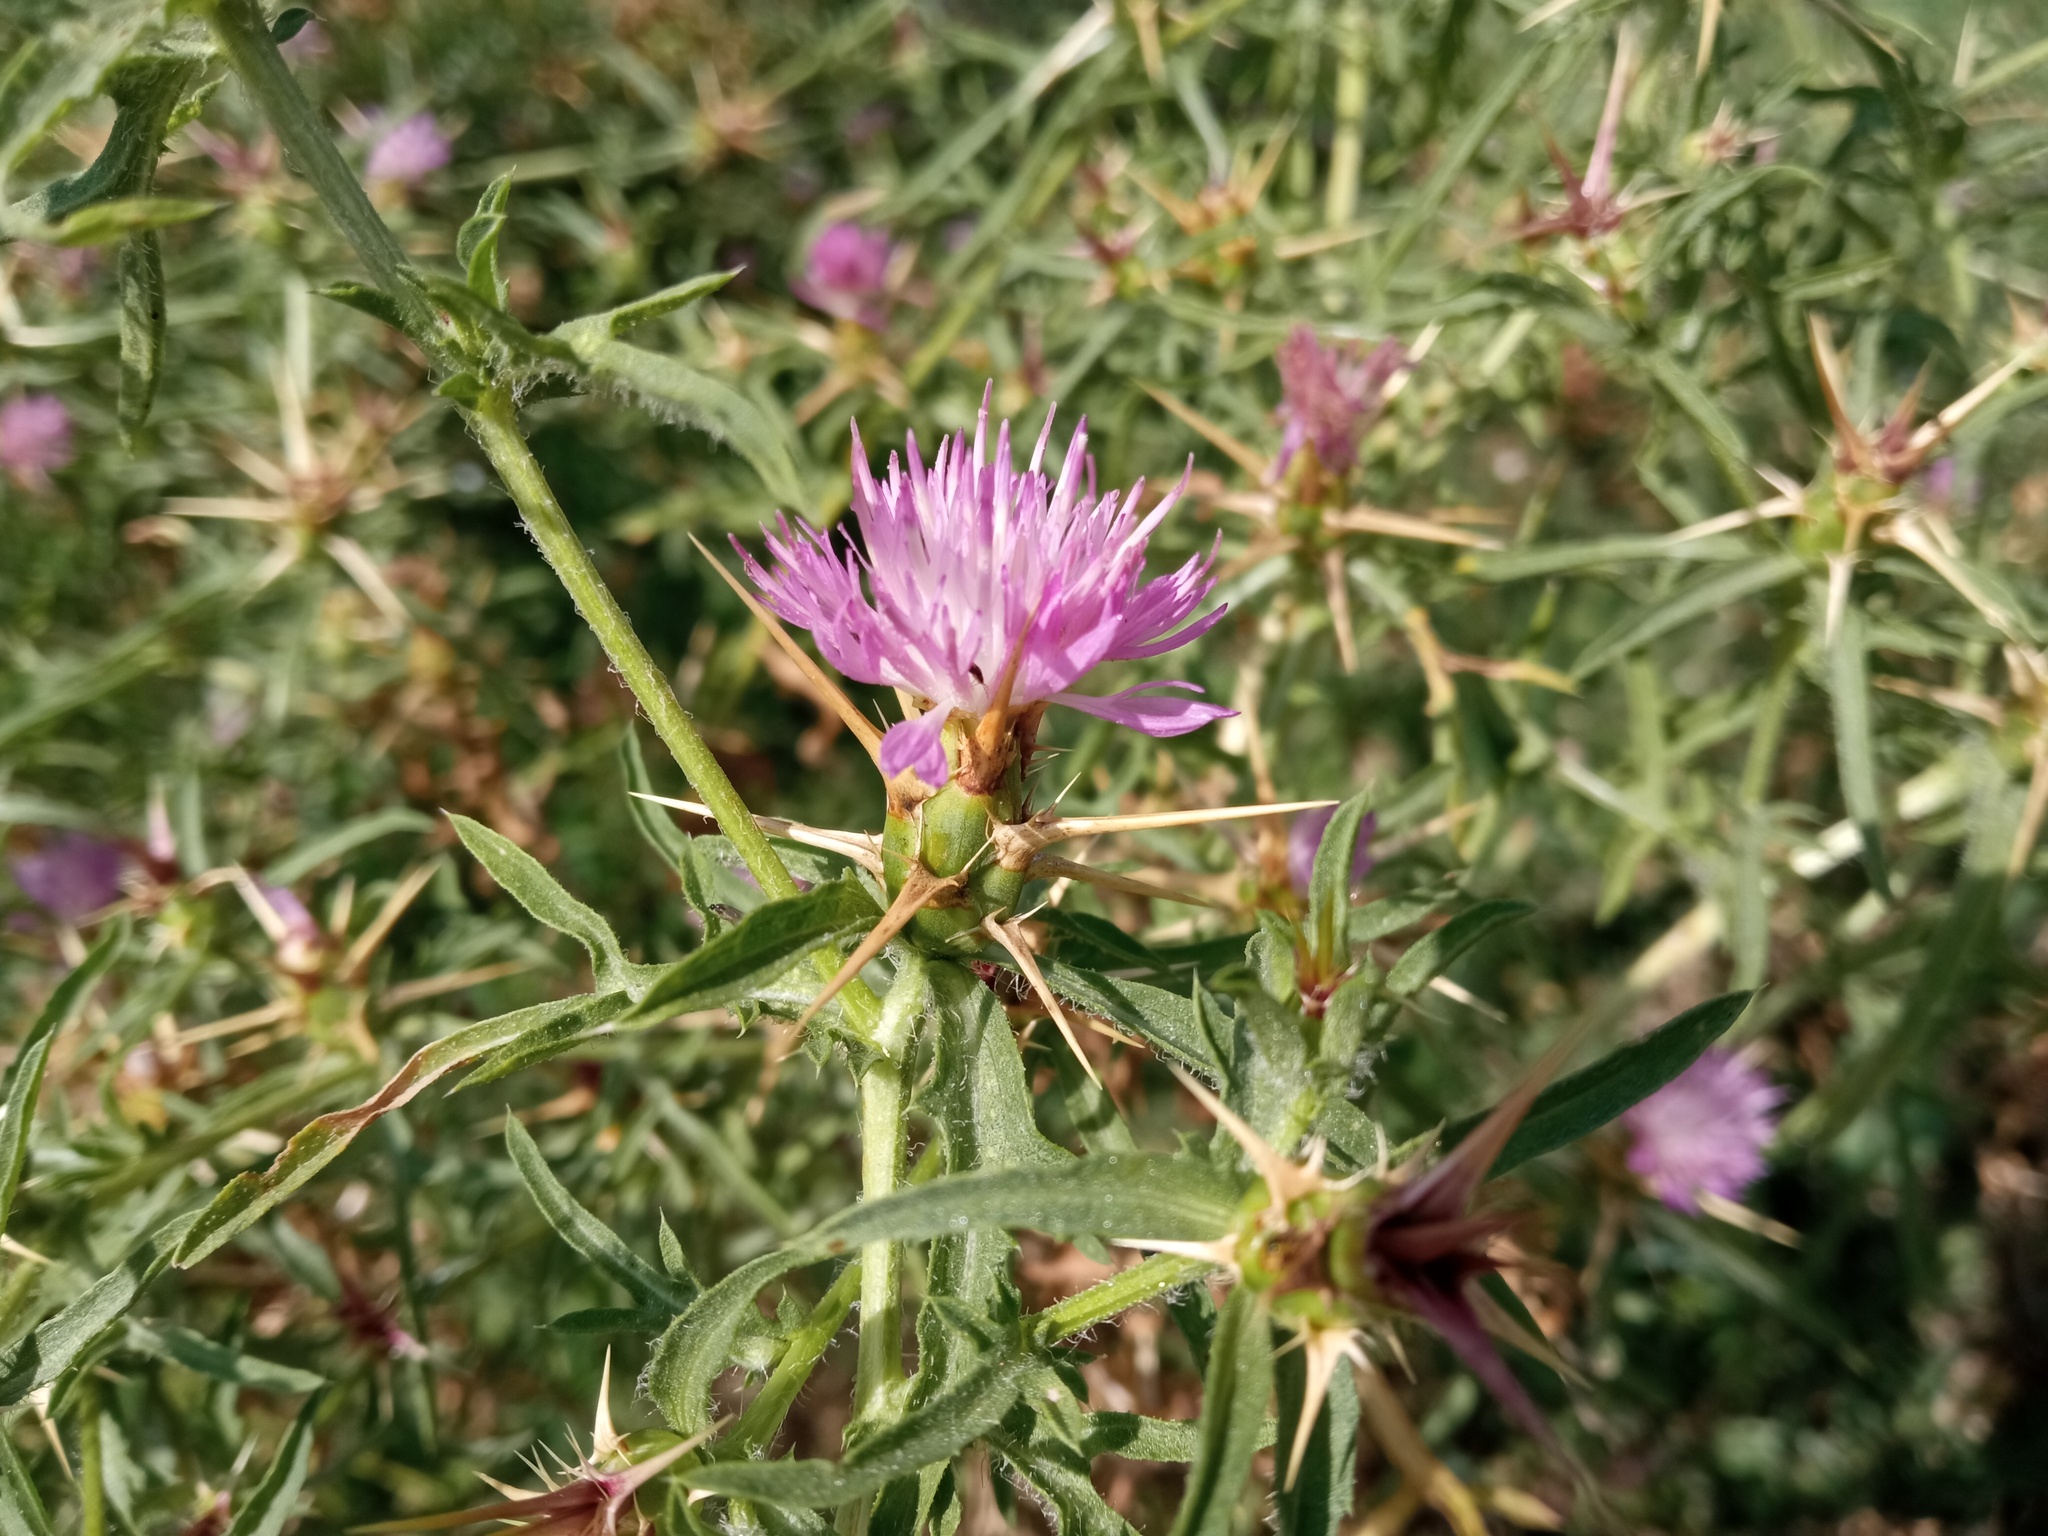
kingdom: Plantae
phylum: Tracheophyta
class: Magnoliopsida
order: Asterales
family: Asteraceae
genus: Centaurea
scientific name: Centaurea calcitrapa
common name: Red star-thistle
